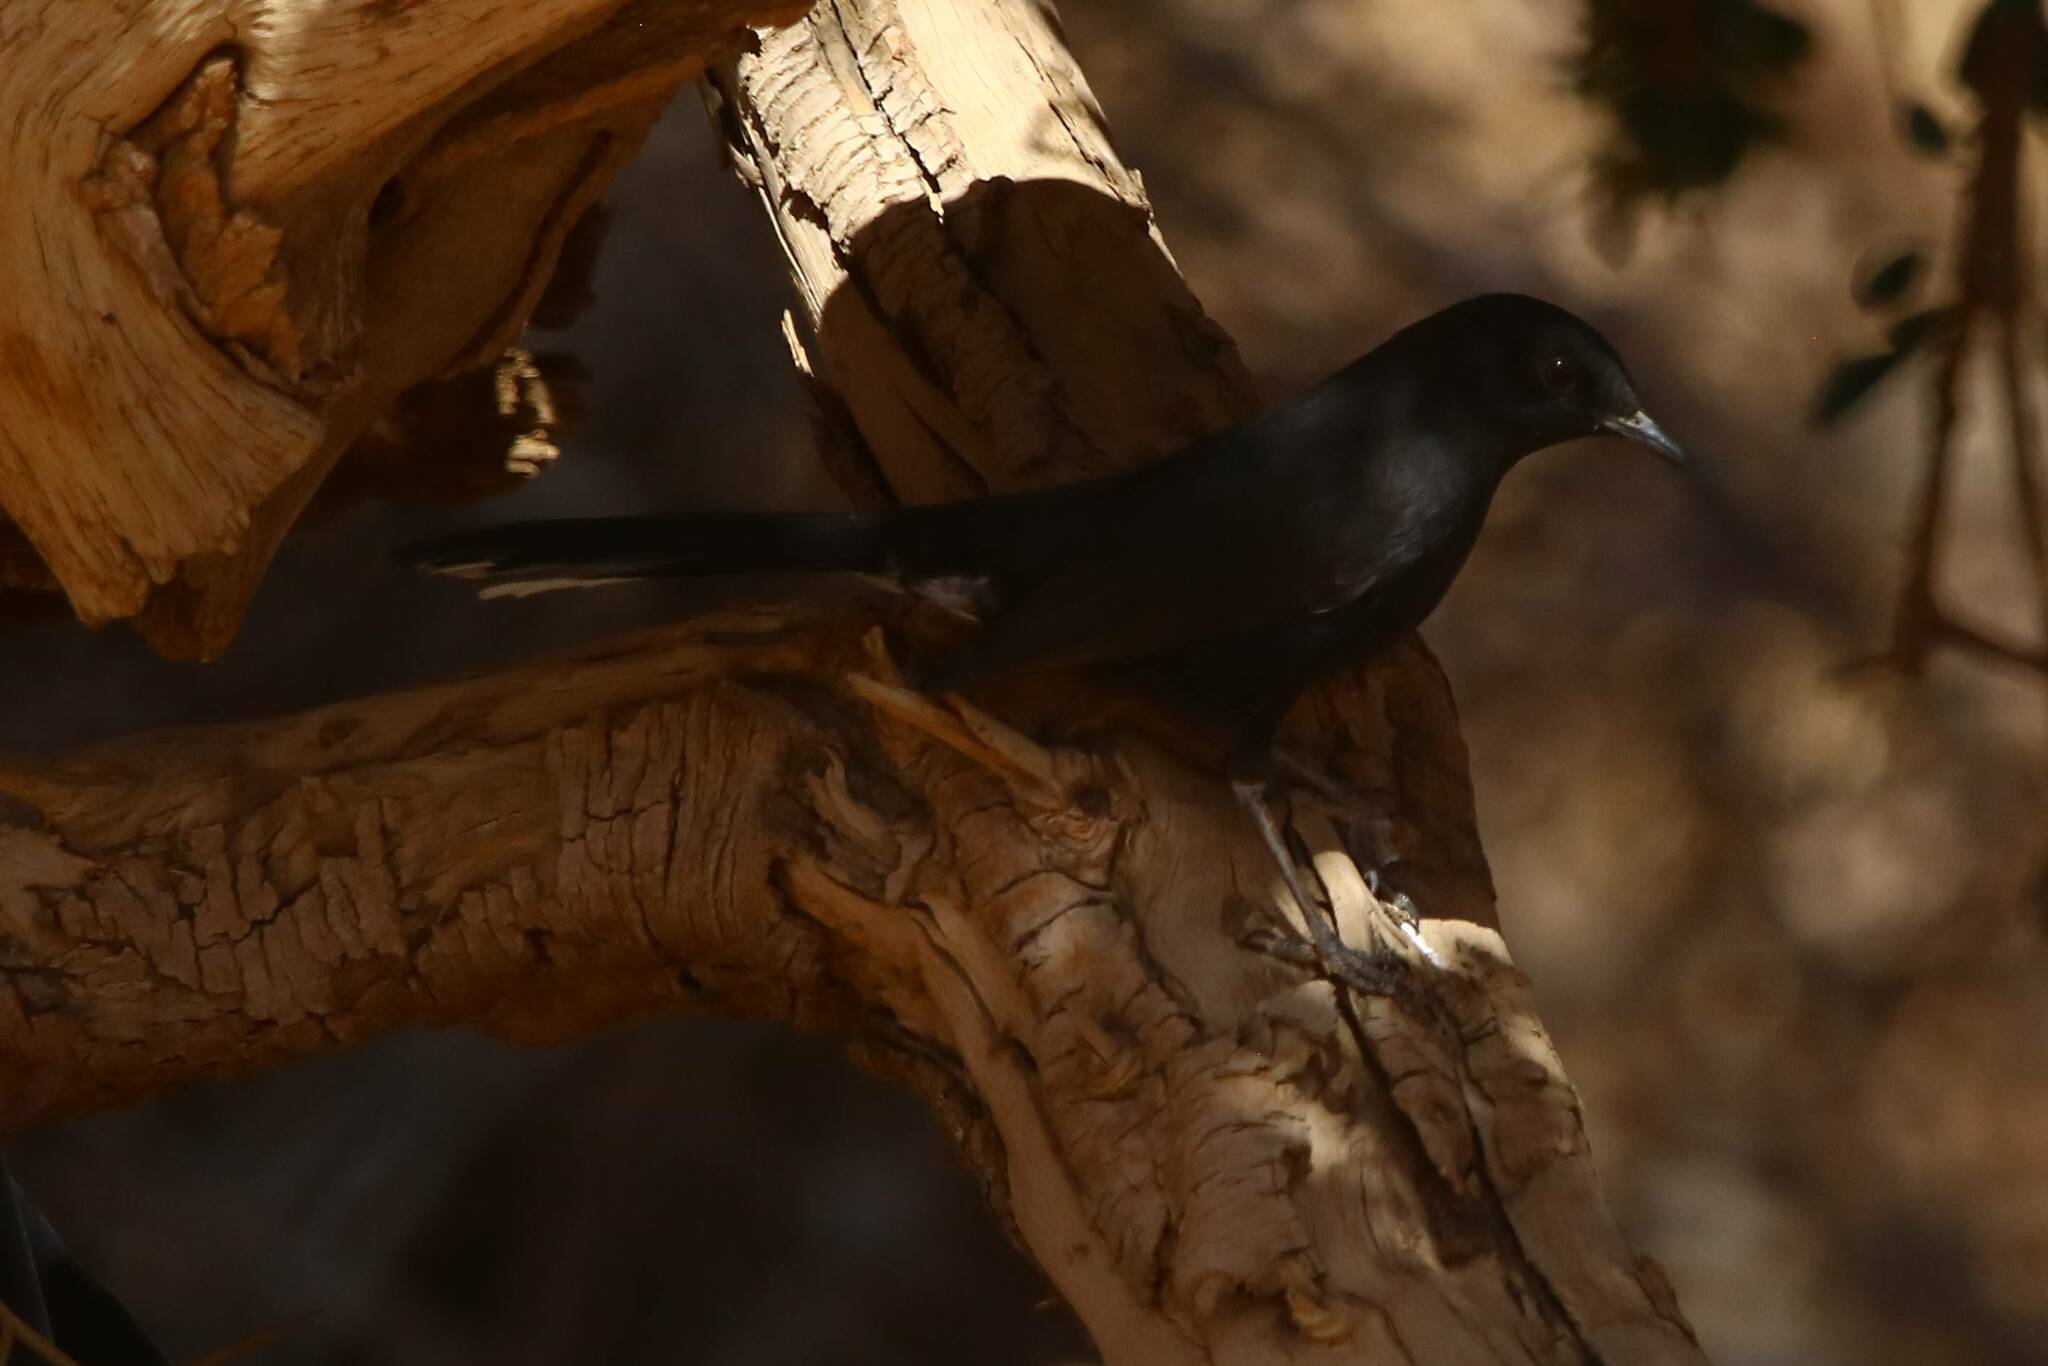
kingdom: Animalia
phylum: Chordata
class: Aves
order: Passeriformes
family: Muscicapidae
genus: Cercotrichas
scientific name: Cercotrichas podobe
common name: Black scrub robin
